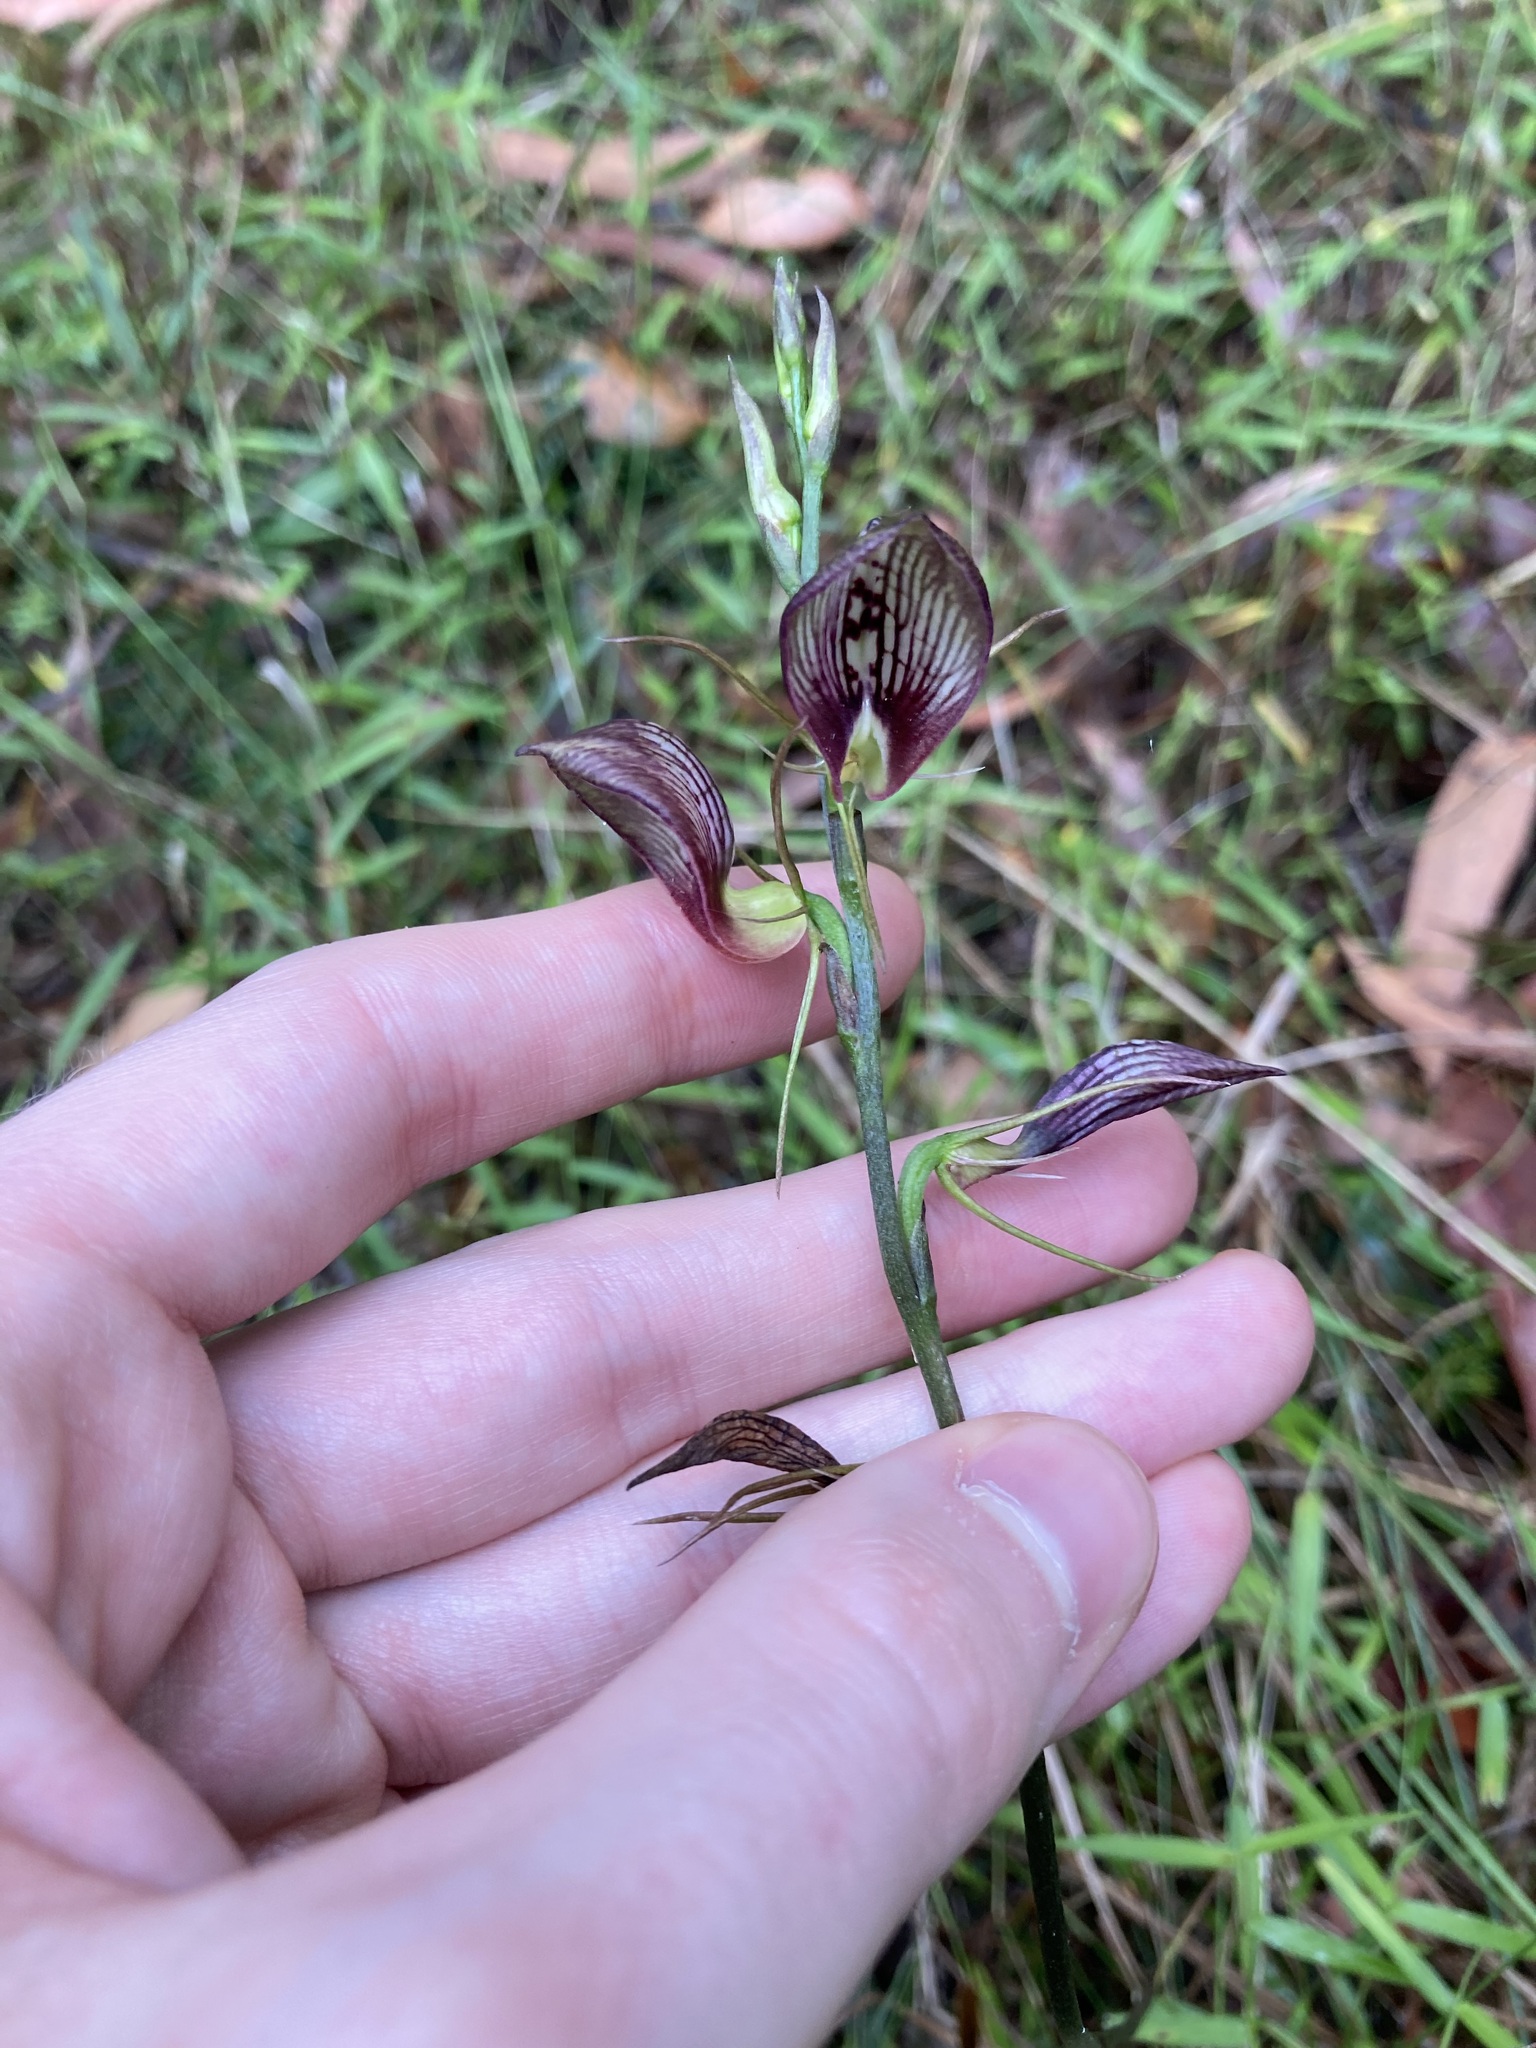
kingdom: Plantae
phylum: Tracheophyta
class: Liliopsida
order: Asparagales
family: Orchidaceae
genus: Cryptostylis
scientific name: Cryptostylis erecta
